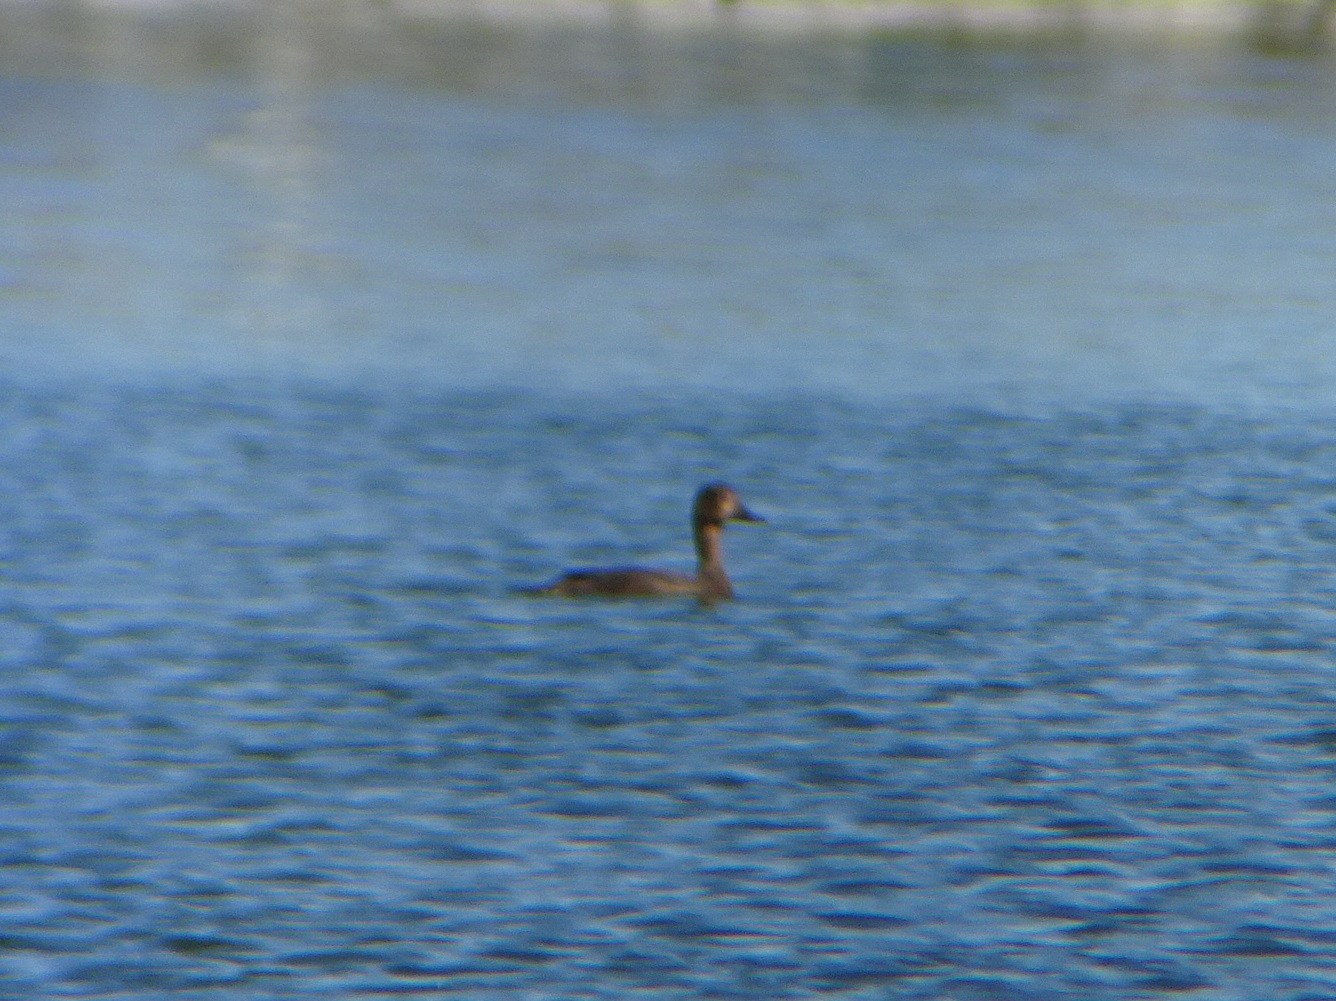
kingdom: Animalia
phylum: Chordata
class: Aves
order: Anseriformes
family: Anatidae
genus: Aythya
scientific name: Aythya americana
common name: Redhead
